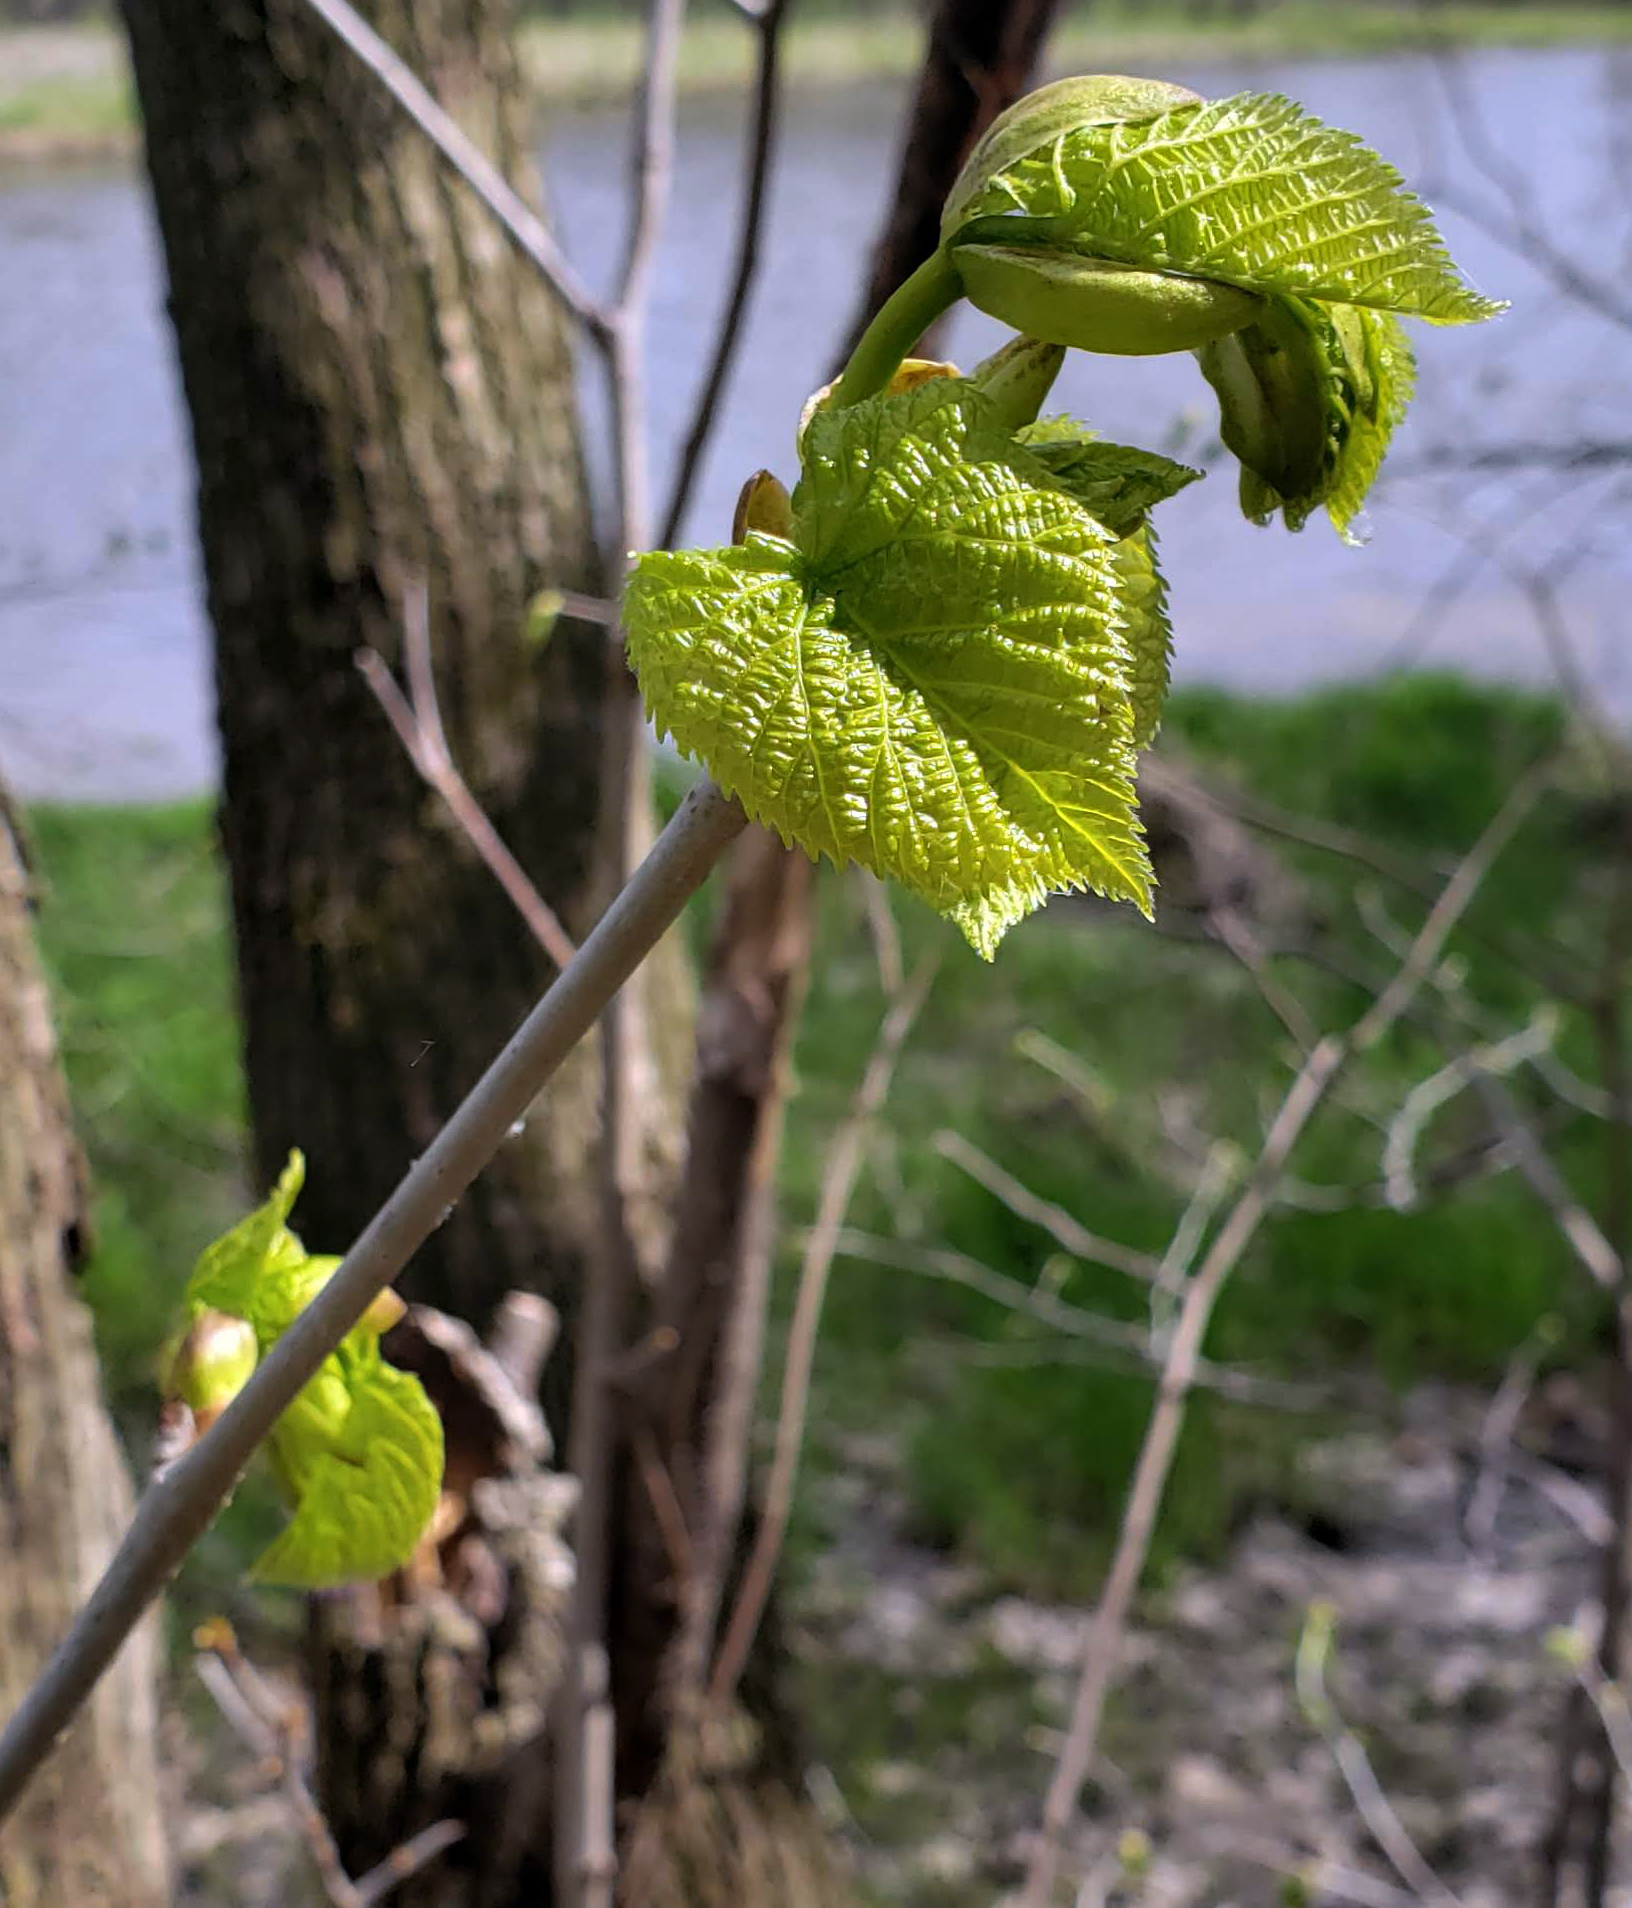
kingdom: Plantae
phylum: Tracheophyta
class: Magnoliopsida
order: Malvales
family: Malvaceae
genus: Tilia
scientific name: Tilia americana
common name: Basswood
